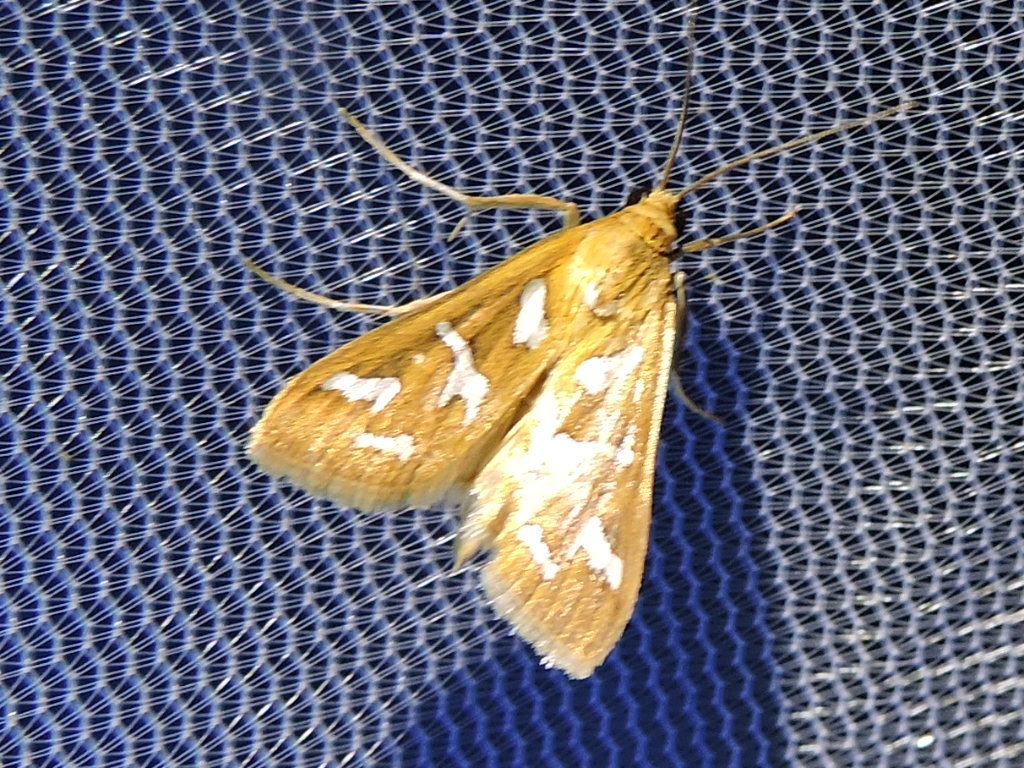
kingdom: Animalia
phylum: Arthropoda
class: Insecta
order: Lepidoptera
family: Crambidae
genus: Diastictis
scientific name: Diastictis fracturalis
